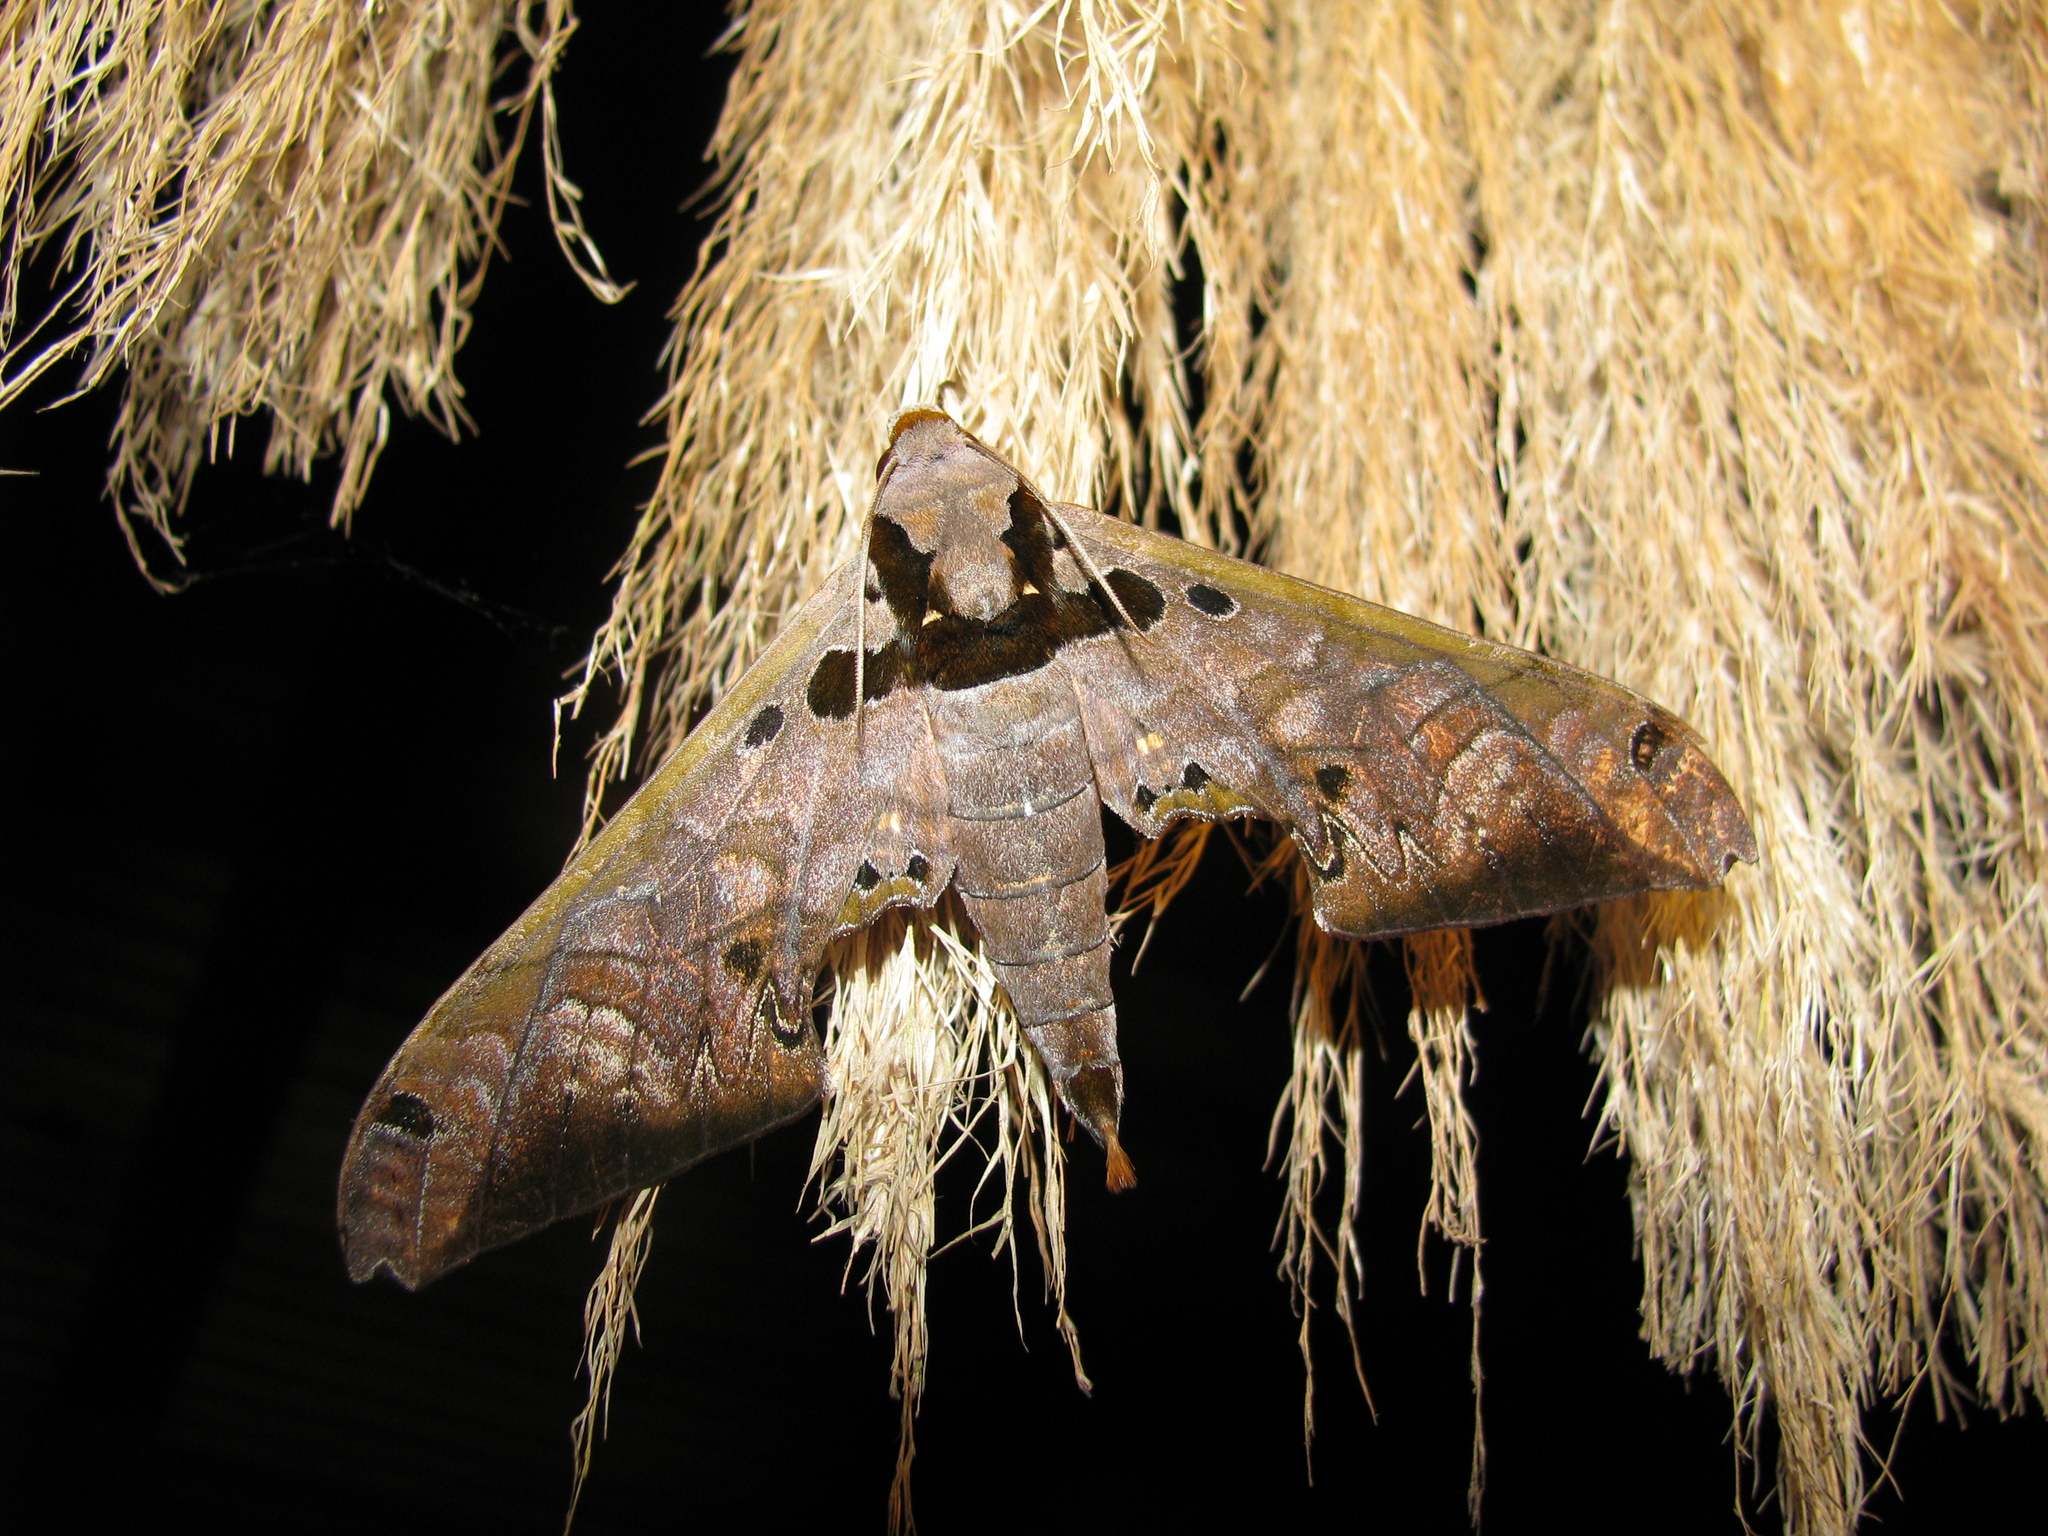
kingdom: Animalia
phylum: Arthropoda
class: Insecta
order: Lepidoptera
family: Sphingidae
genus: Adhemarius
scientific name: Adhemarius sexoculata
